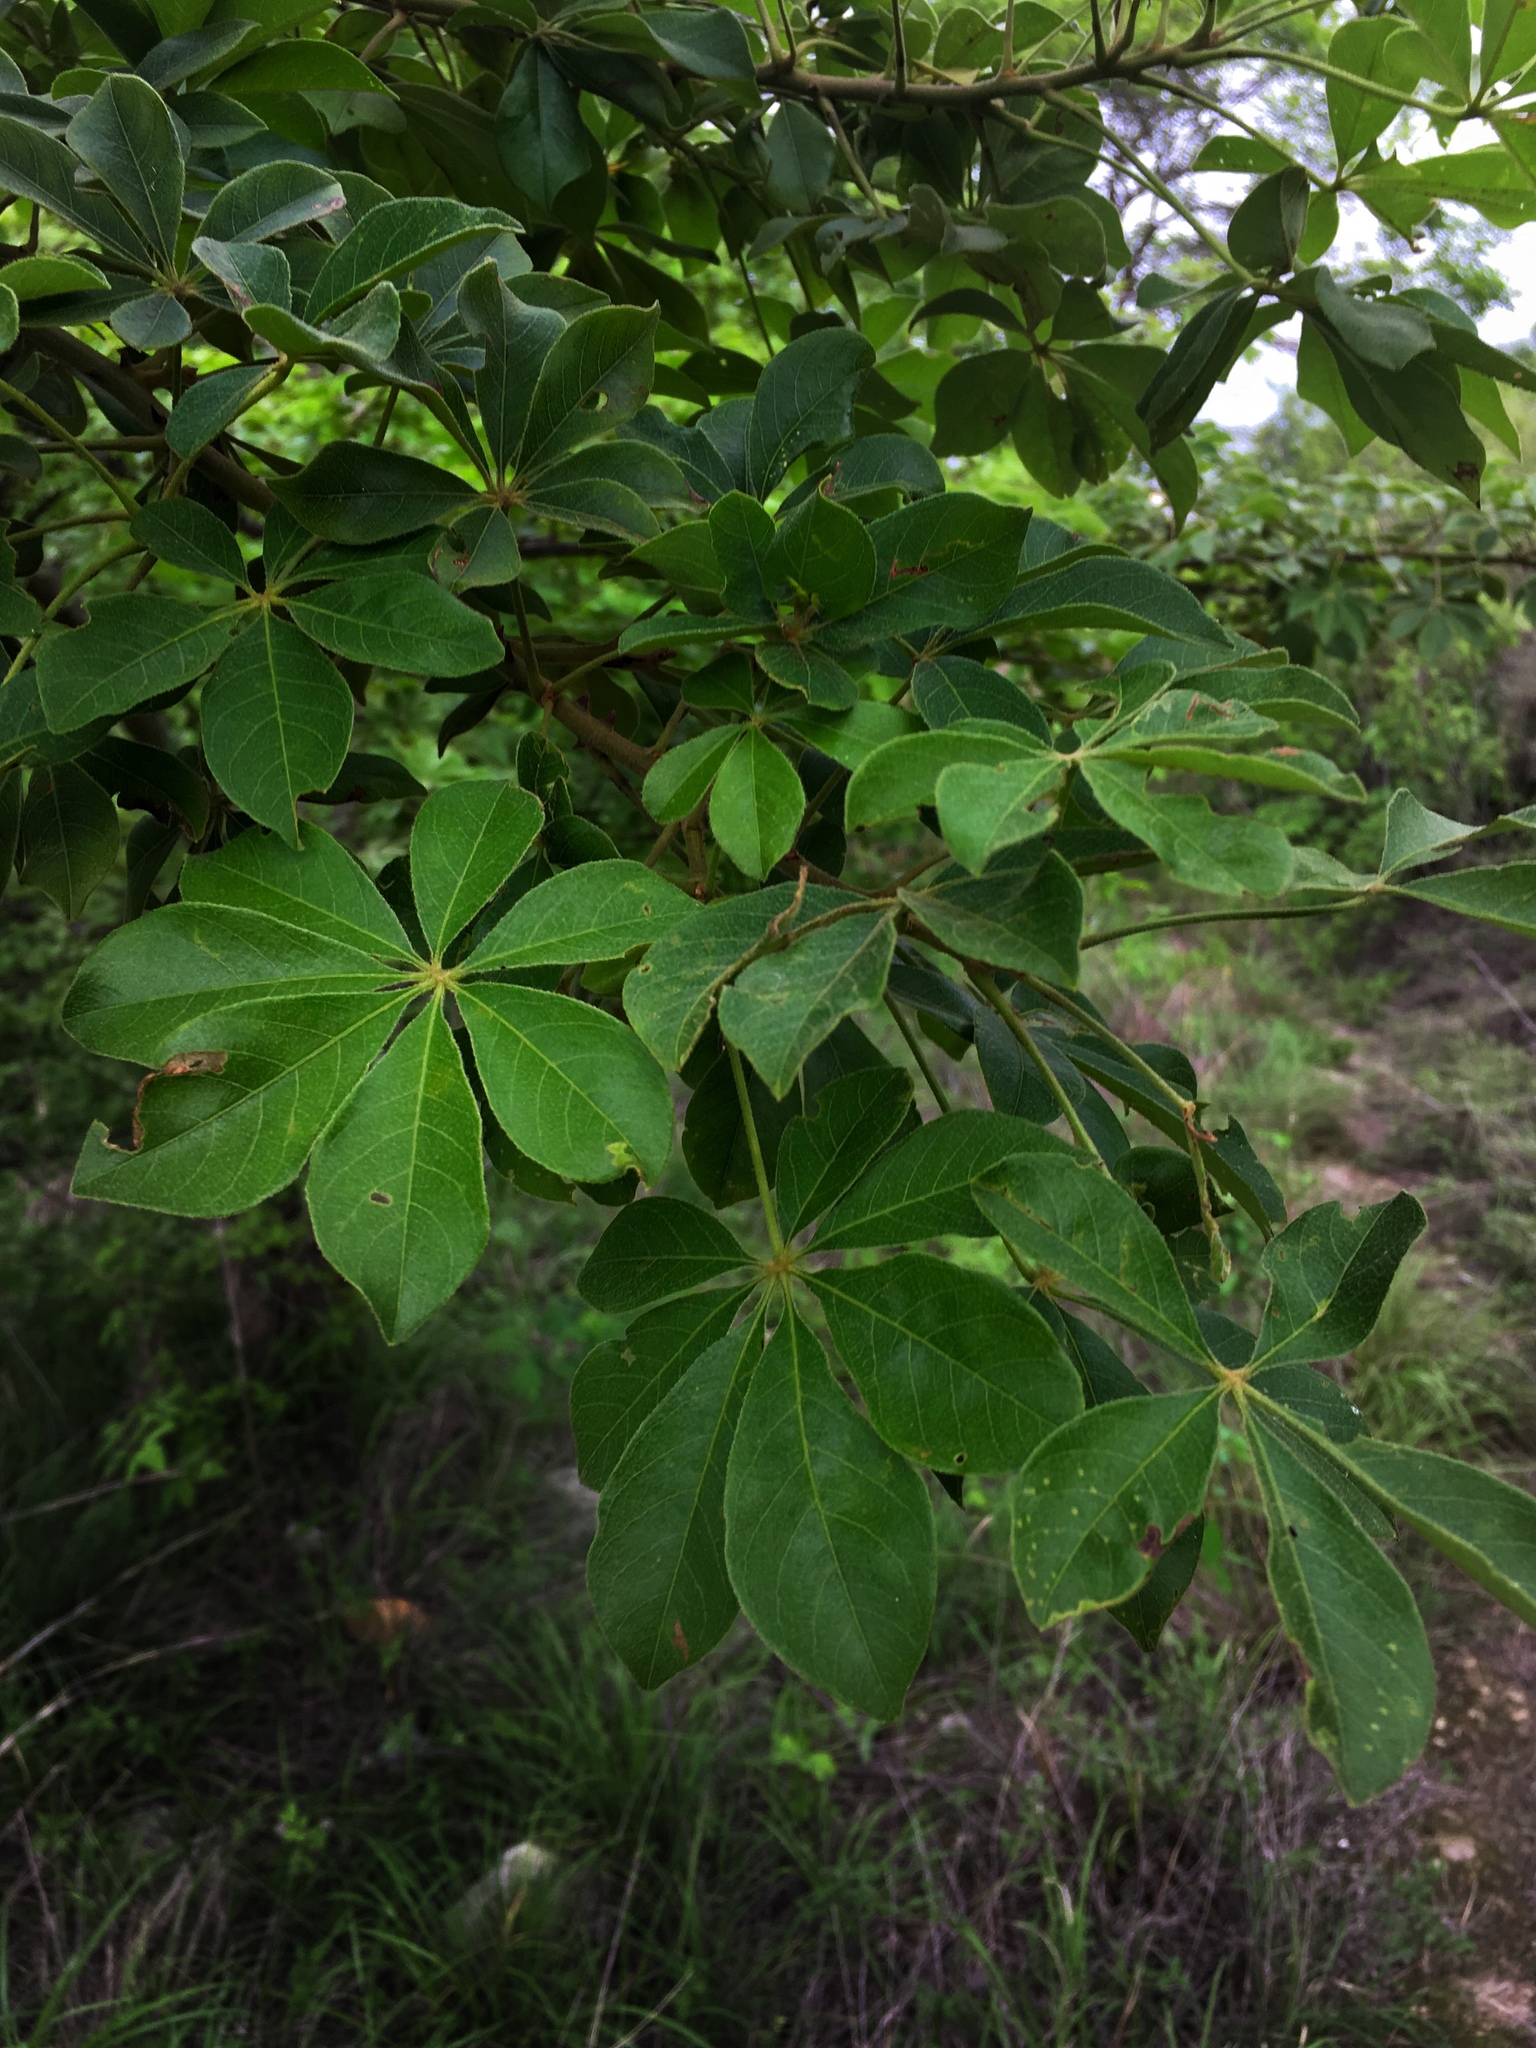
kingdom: Plantae
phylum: Tracheophyta
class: Magnoliopsida
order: Malvales
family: Malvaceae
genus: Ceiba
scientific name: Ceiba aesculifolia
